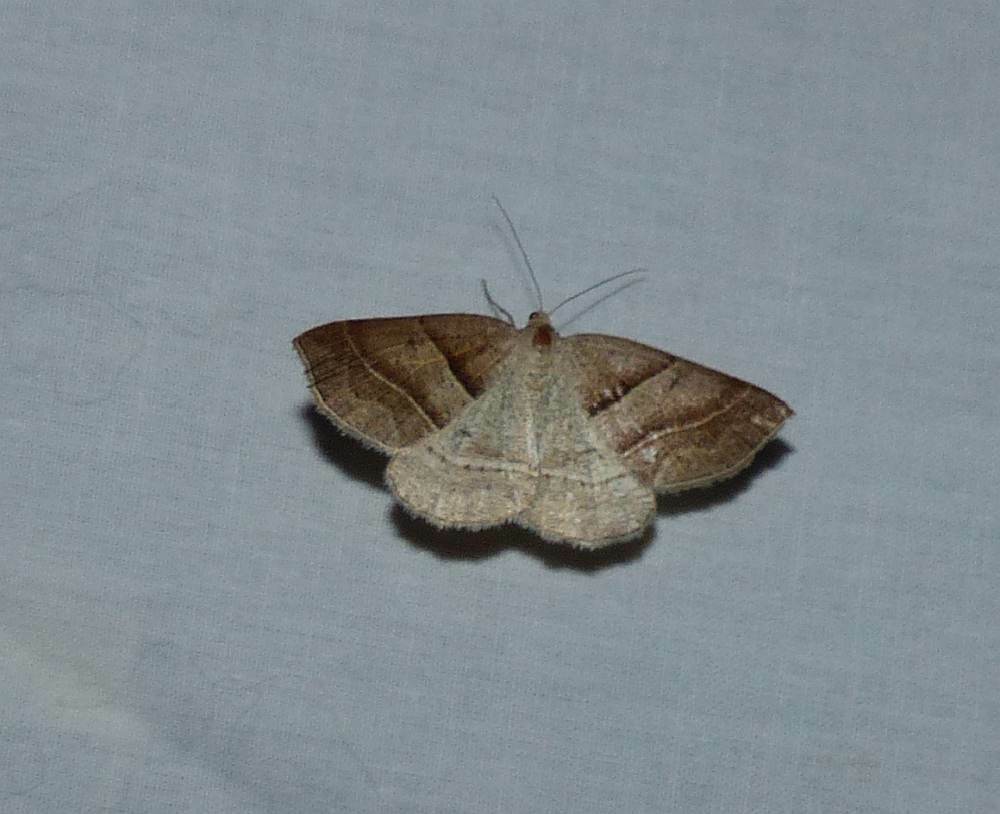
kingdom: Animalia
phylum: Arthropoda
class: Insecta
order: Lepidoptera
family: Pterophoridae
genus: Pterophorus
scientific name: Pterophorus Petrophora subaequaria
